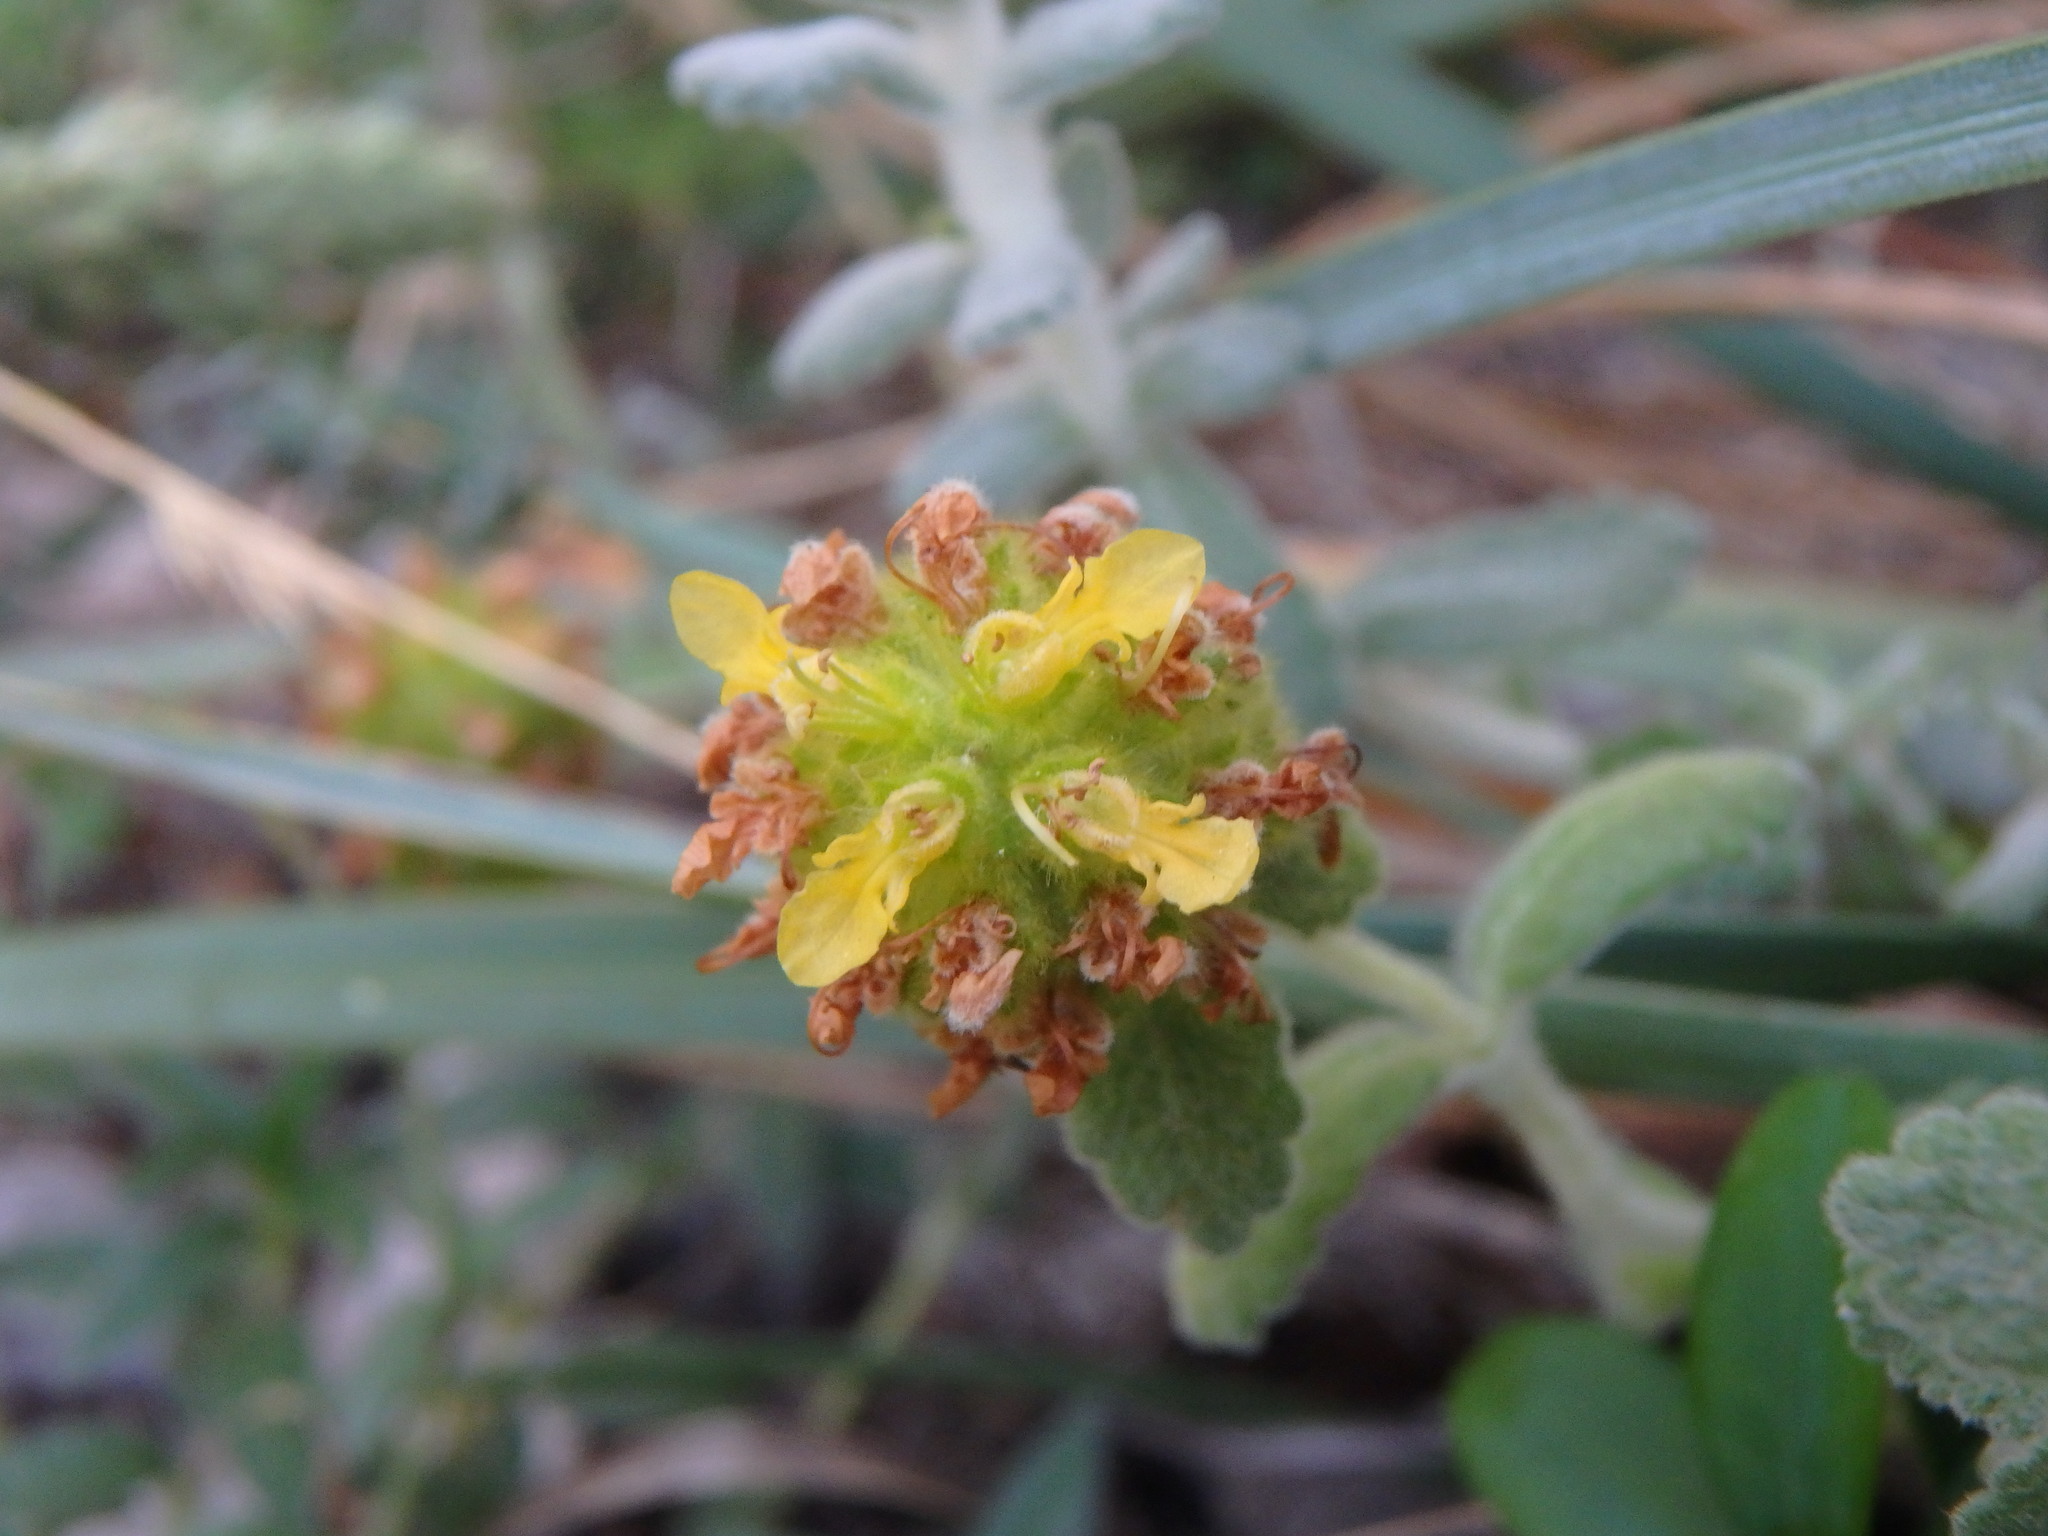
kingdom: Plantae
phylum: Tracheophyta
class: Magnoliopsida
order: Lamiales
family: Lamiaceae
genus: Teucrium
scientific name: Teucrium aureum
